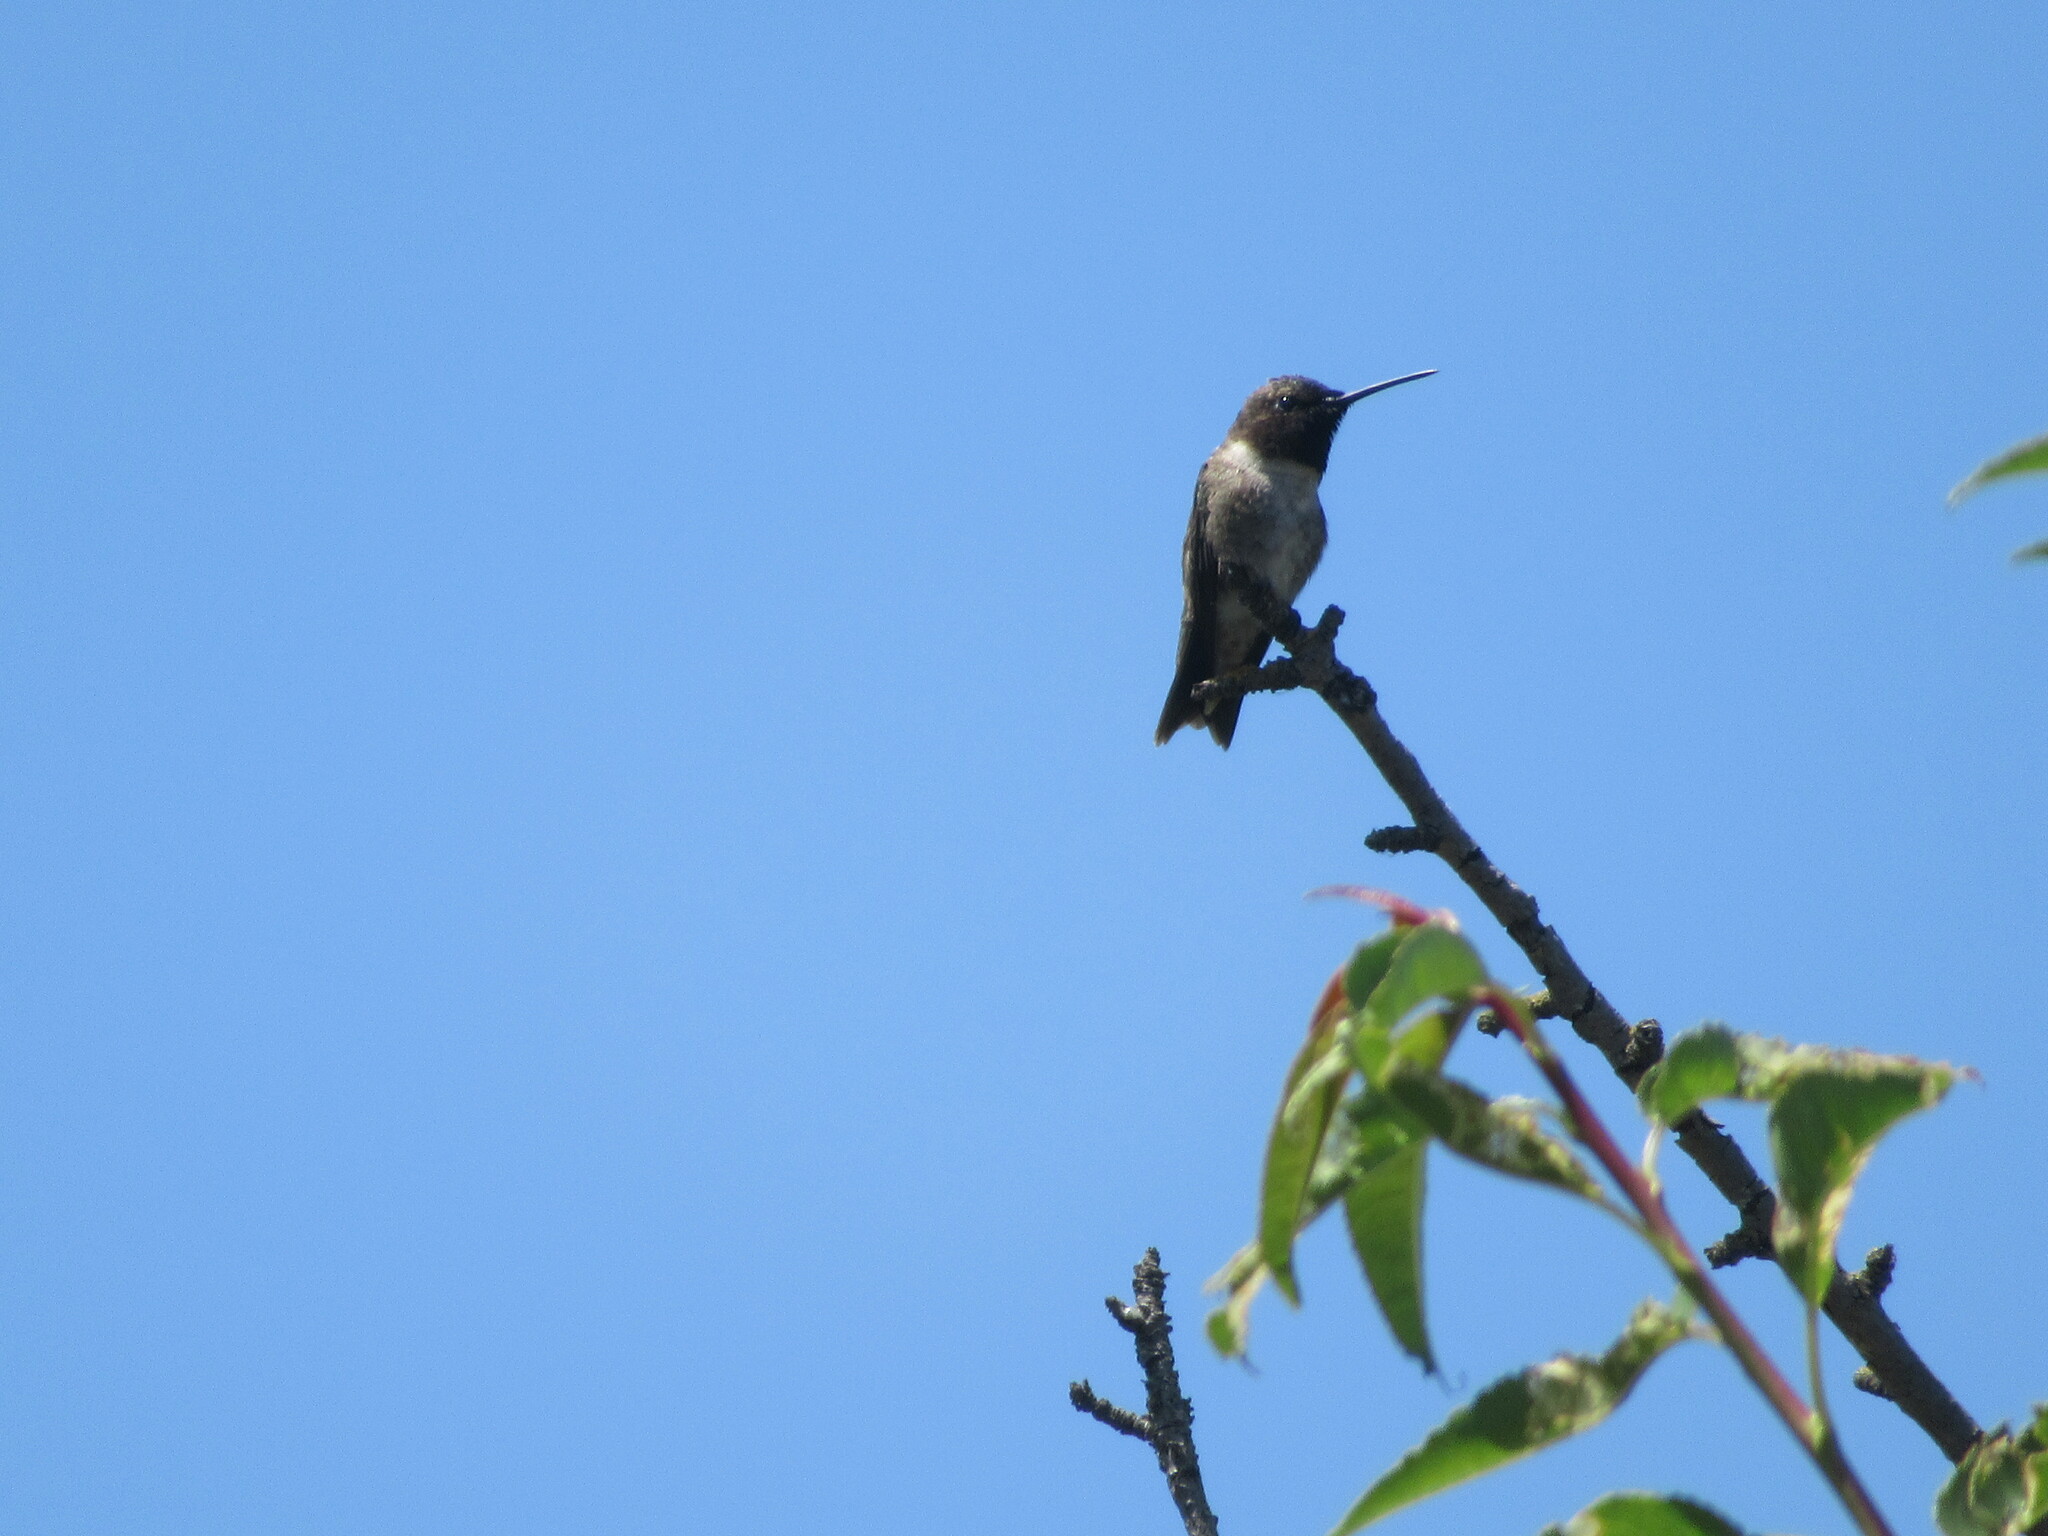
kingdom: Animalia
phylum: Chordata
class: Aves
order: Apodiformes
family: Trochilidae
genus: Archilochus
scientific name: Archilochus alexandri
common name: Black-chinned hummingbird
